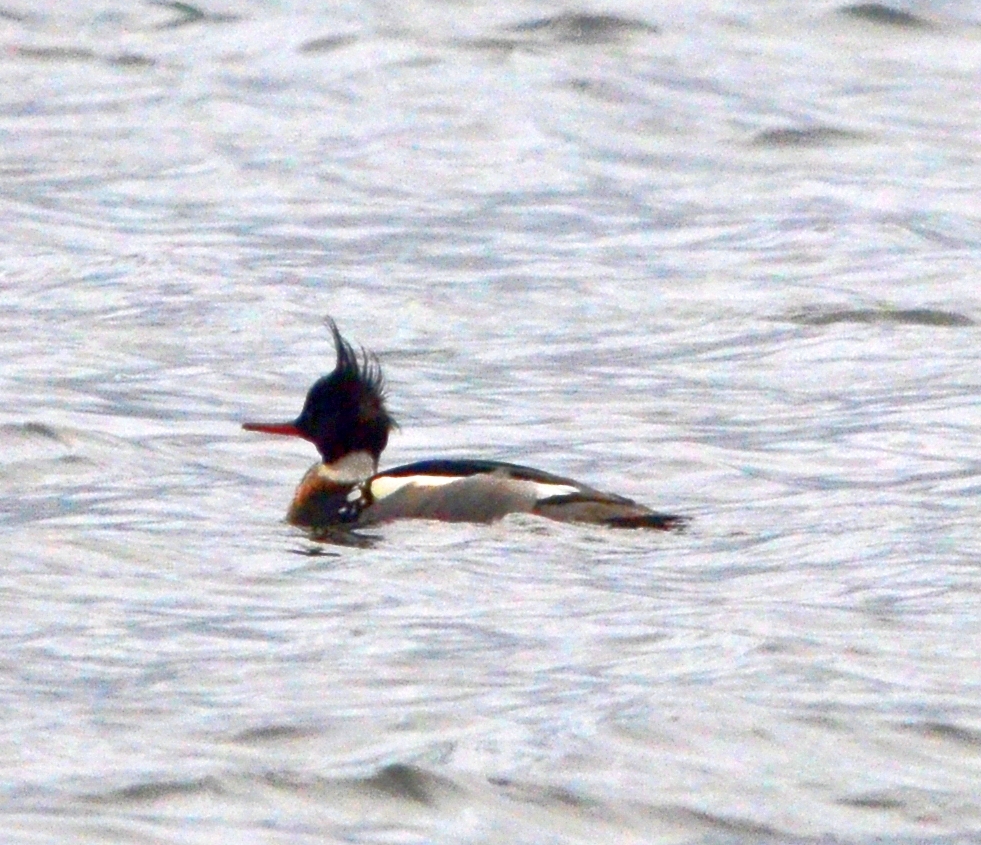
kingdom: Animalia
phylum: Chordata
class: Aves
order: Anseriformes
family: Anatidae
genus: Mergus
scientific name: Mergus serrator
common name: Red-breasted merganser
